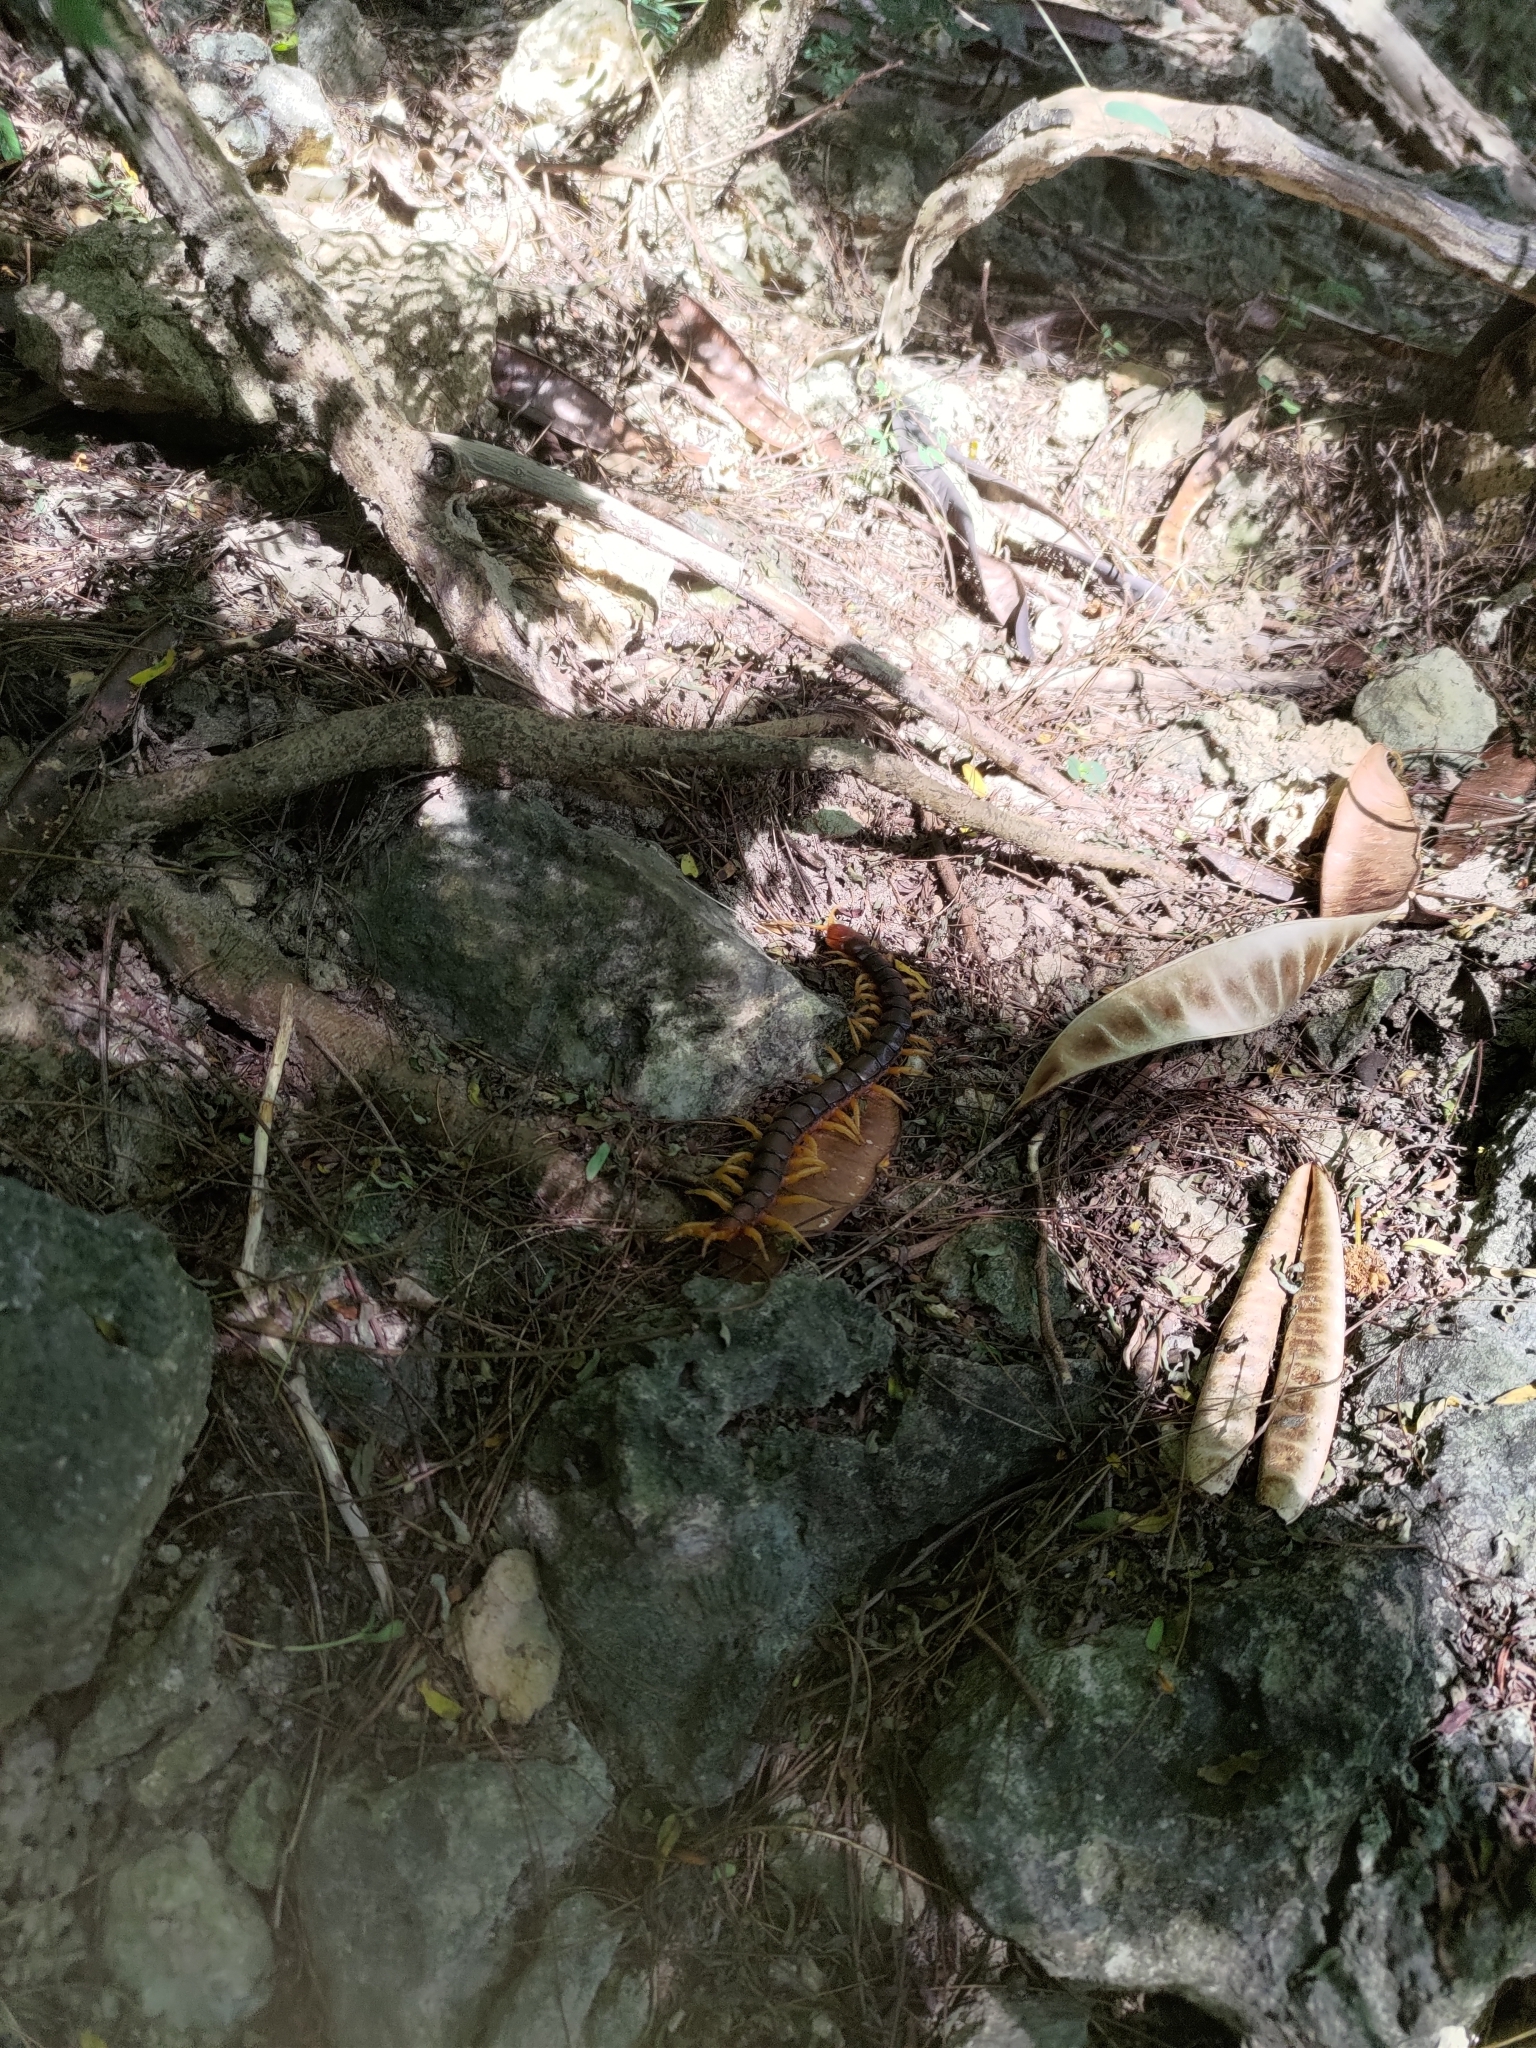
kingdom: Animalia
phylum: Arthropoda
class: Chilopoda
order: Scolopendromorpha
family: Scolopendridae
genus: Scolopendra
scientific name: Scolopendra mutilans
